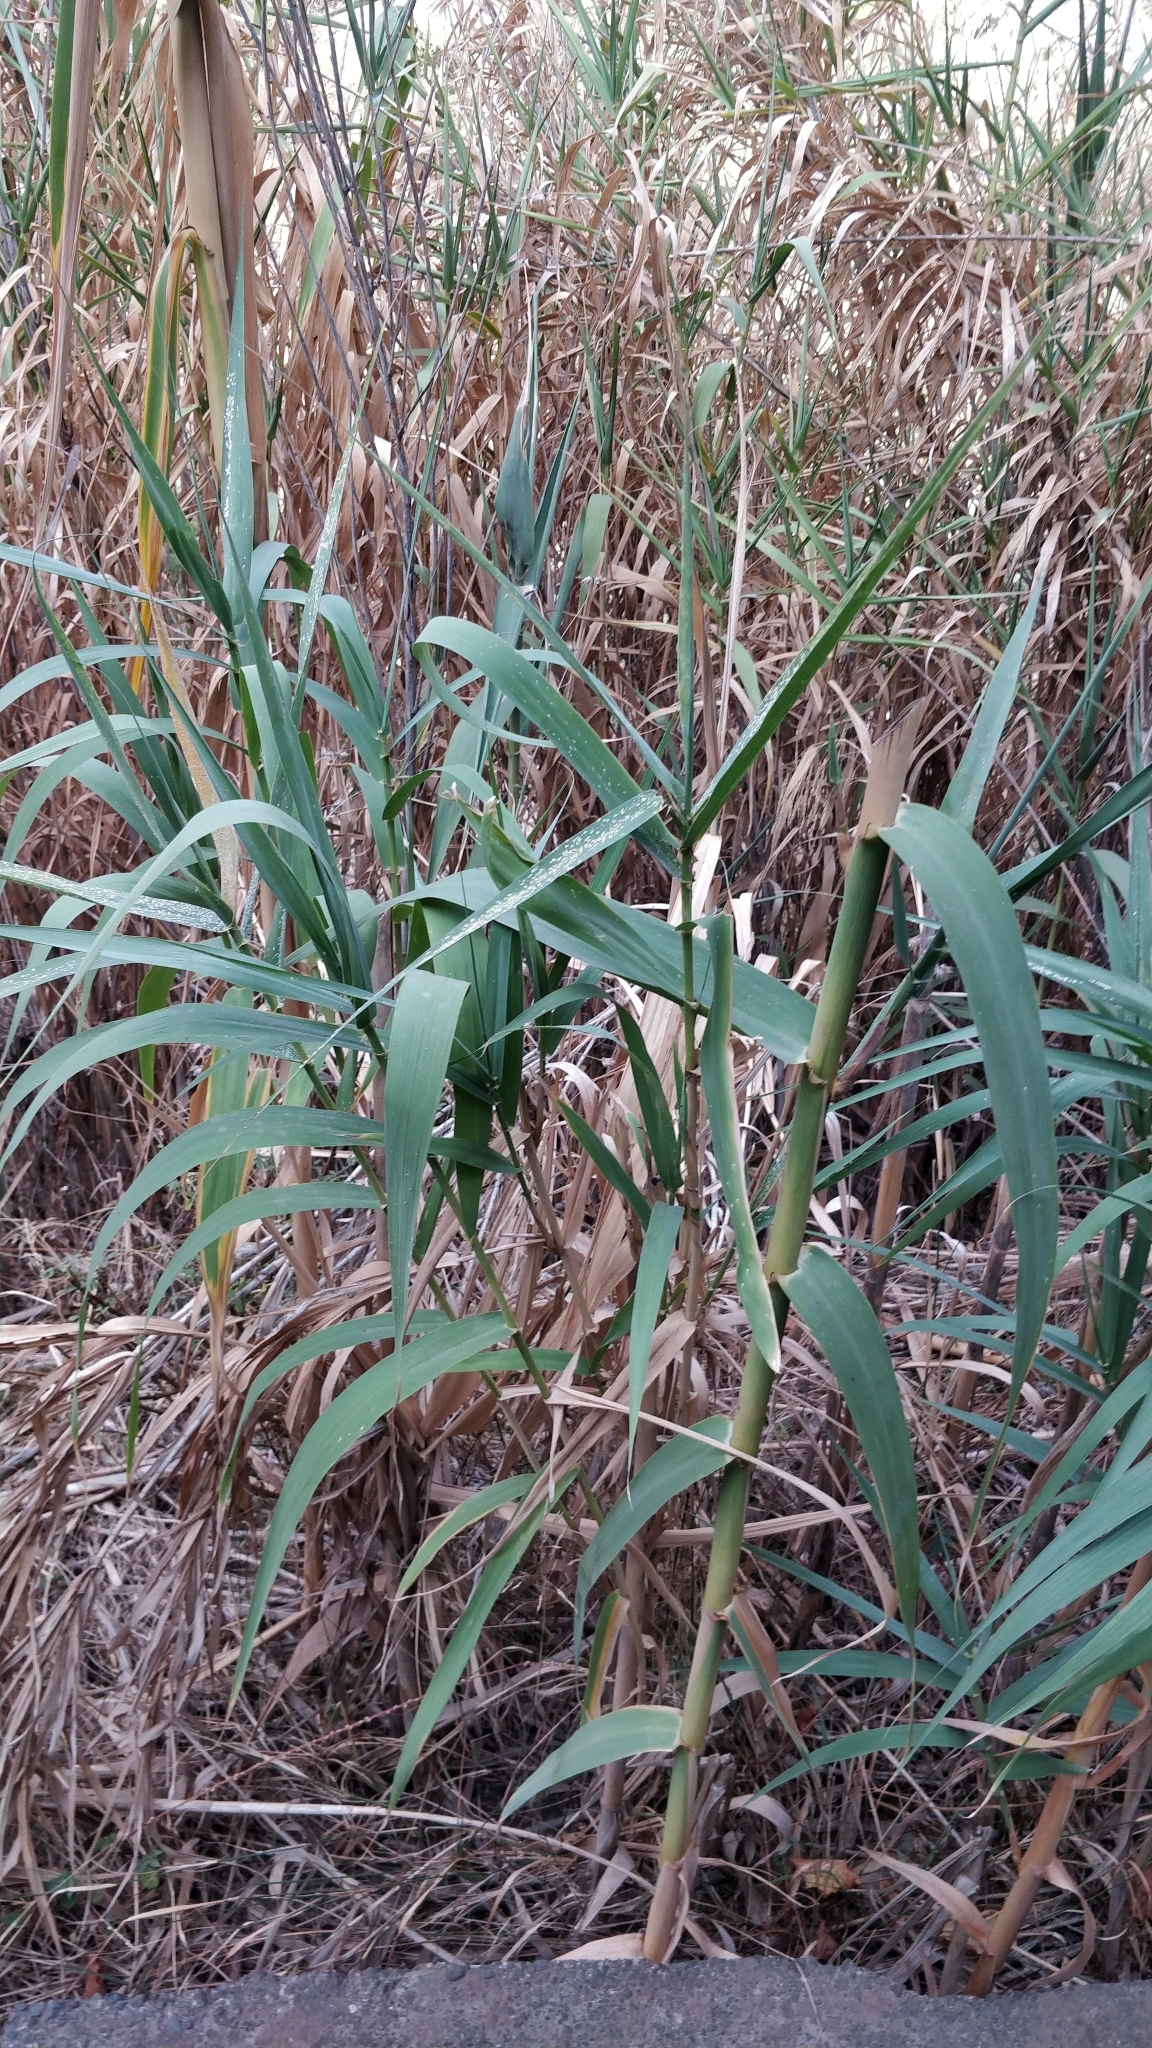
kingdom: Plantae
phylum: Tracheophyta
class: Liliopsida
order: Poales
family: Poaceae
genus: Arundo
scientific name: Arundo donax
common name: Giant reed
